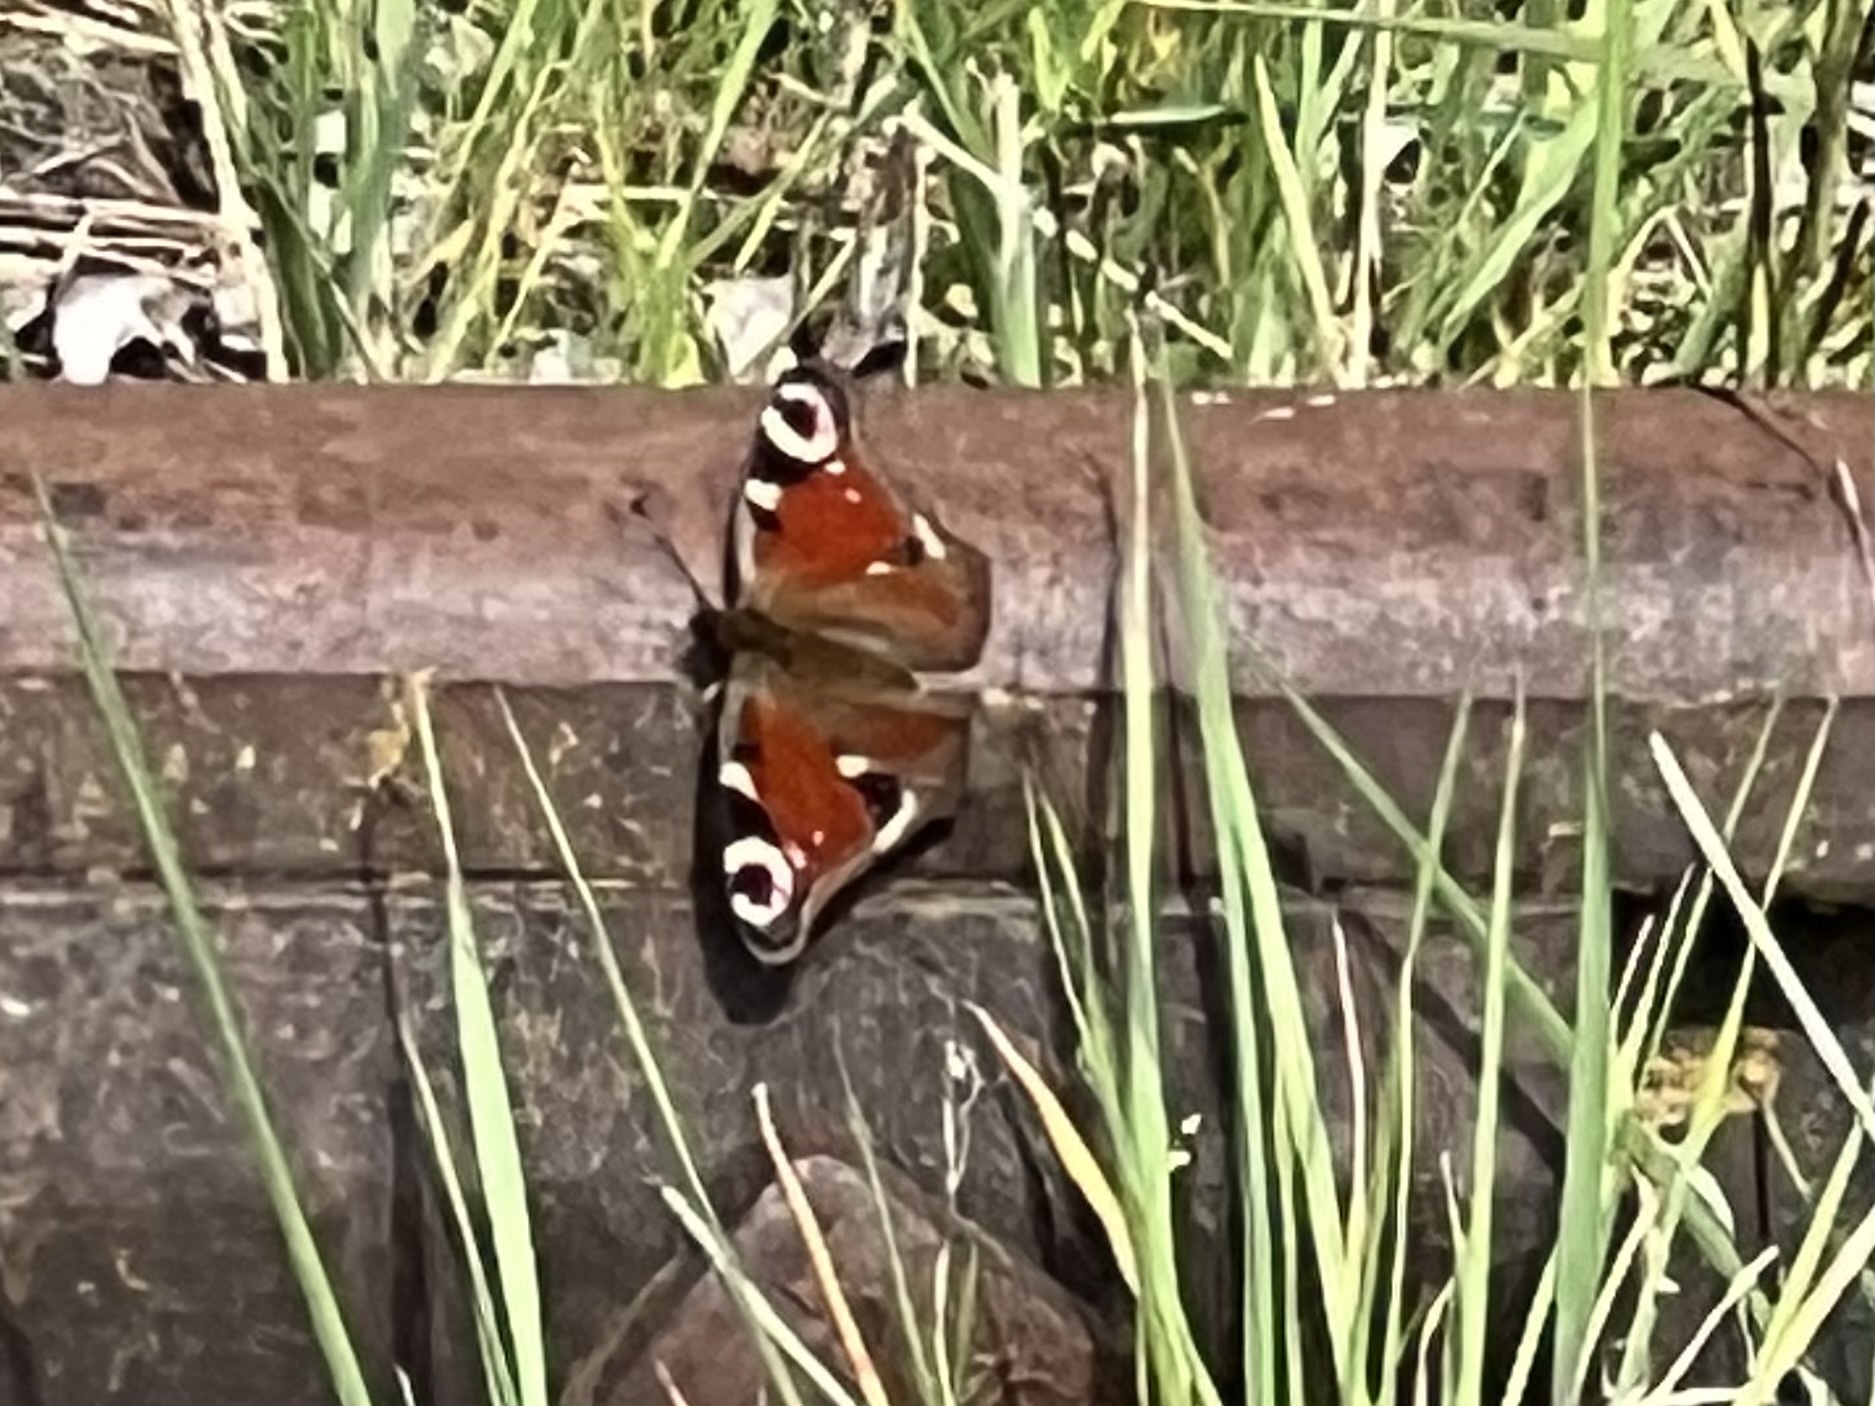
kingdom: Animalia
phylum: Arthropoda
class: Insecta
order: Lepidoptera
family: Nymphalidae
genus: Aglais
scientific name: Aglais io
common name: Peacock
